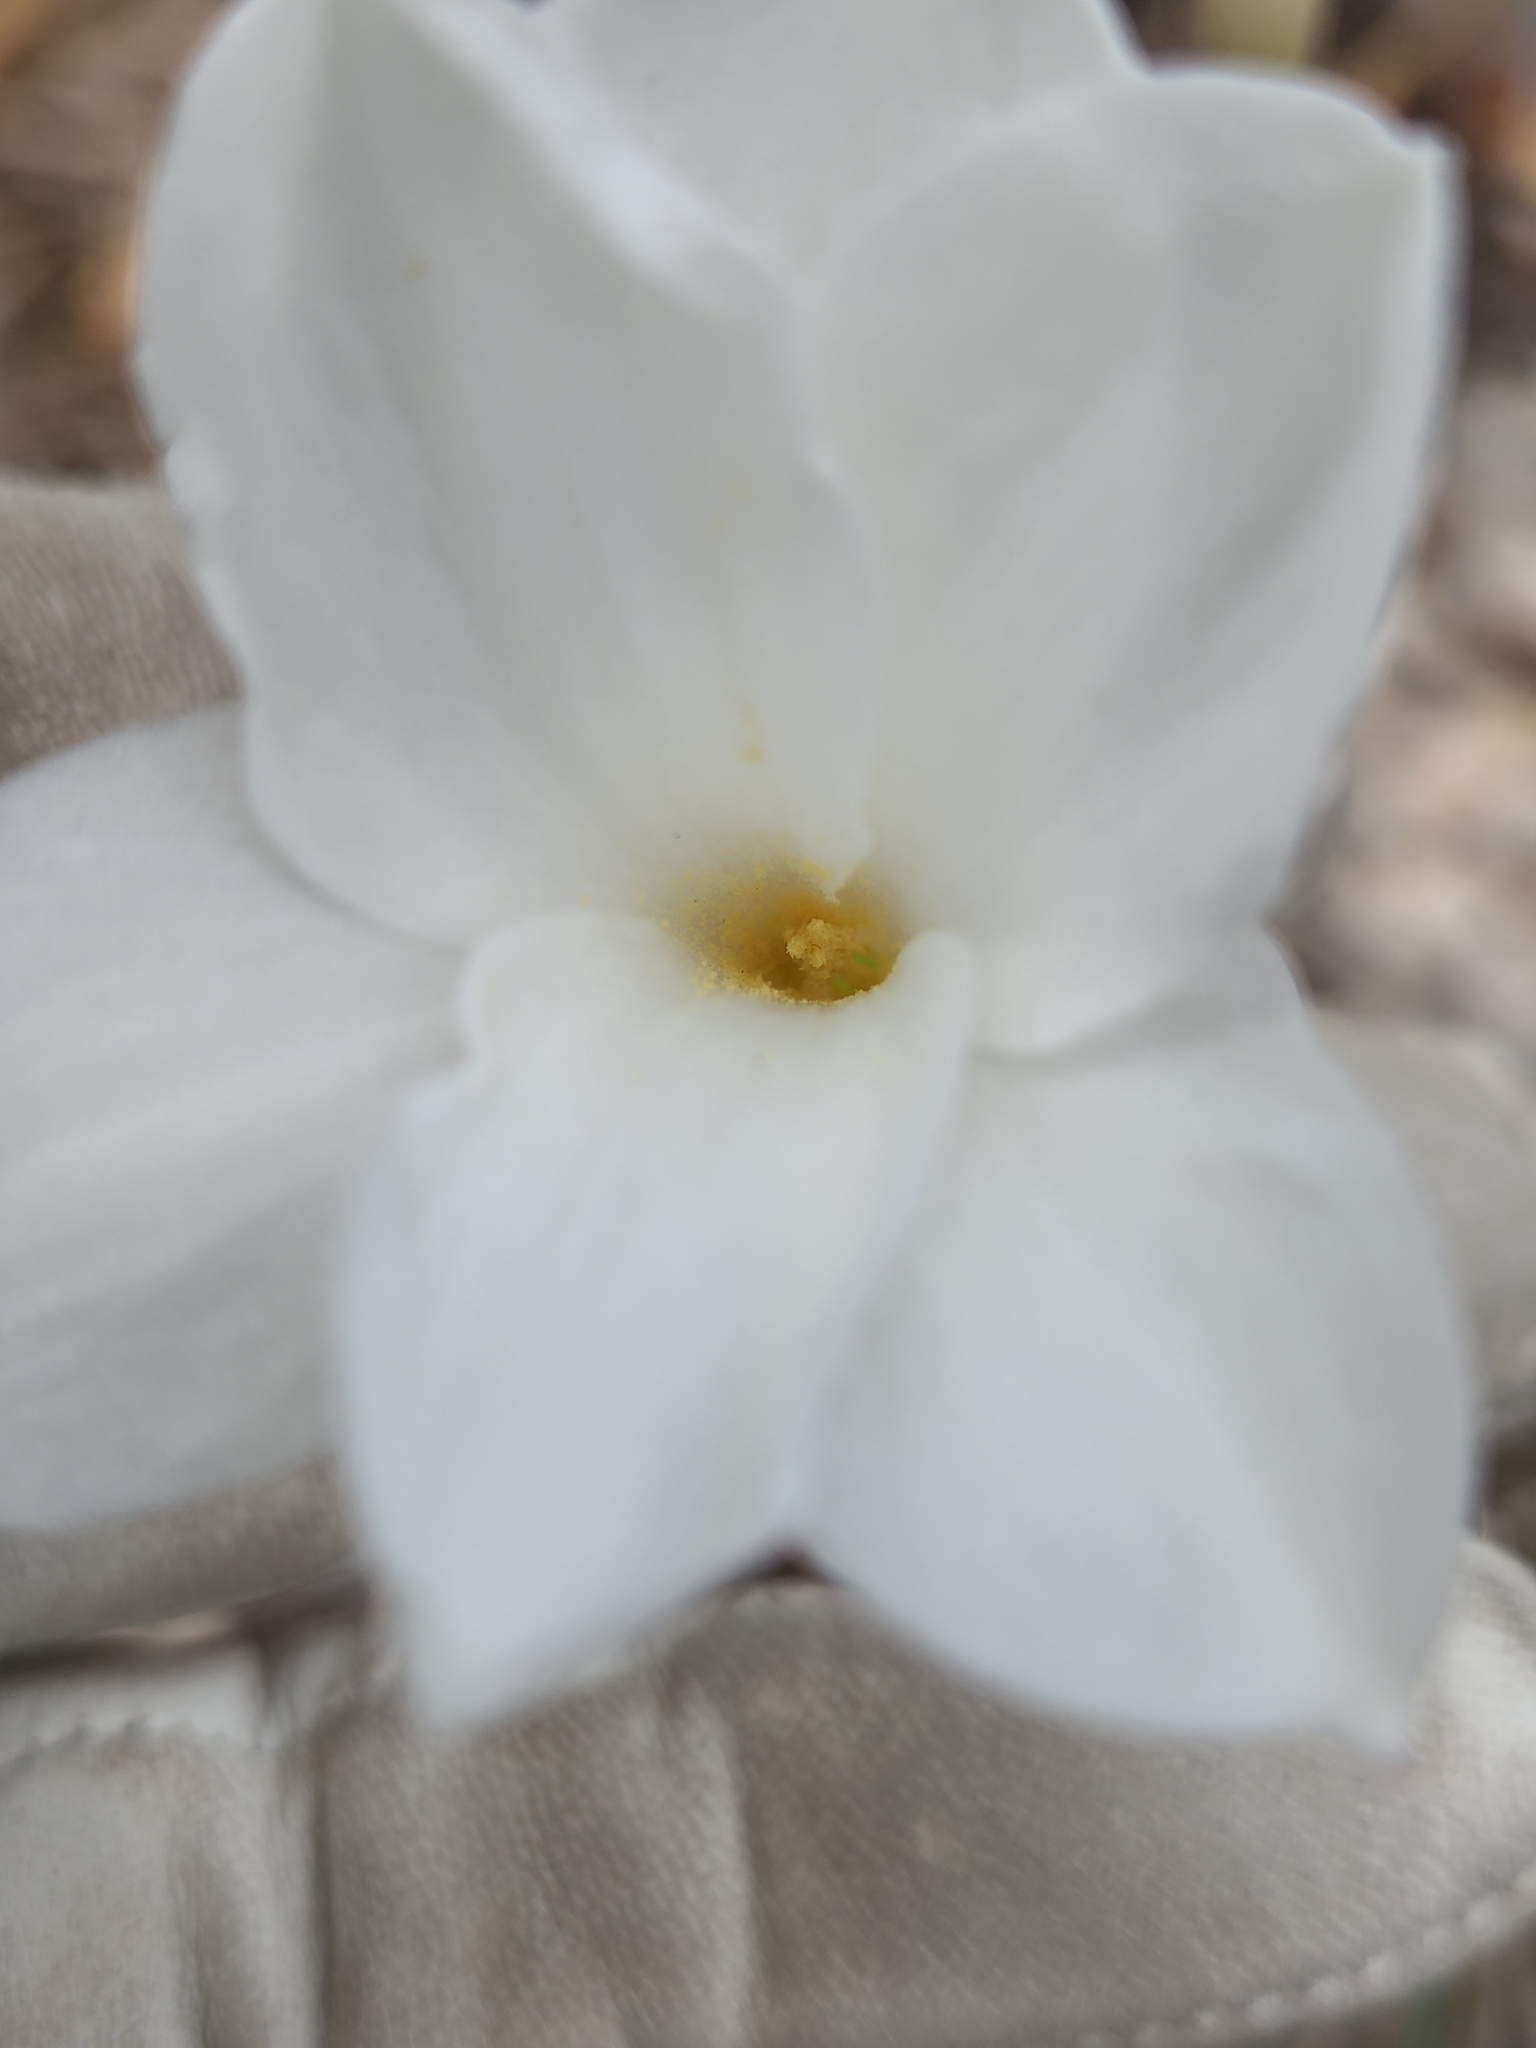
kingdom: Plantae
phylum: Tracheophyta
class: Liliopsida
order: Asparagales
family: Amaryllidaceae
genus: Zephyranthes
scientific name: Zephyranthes drummondii
